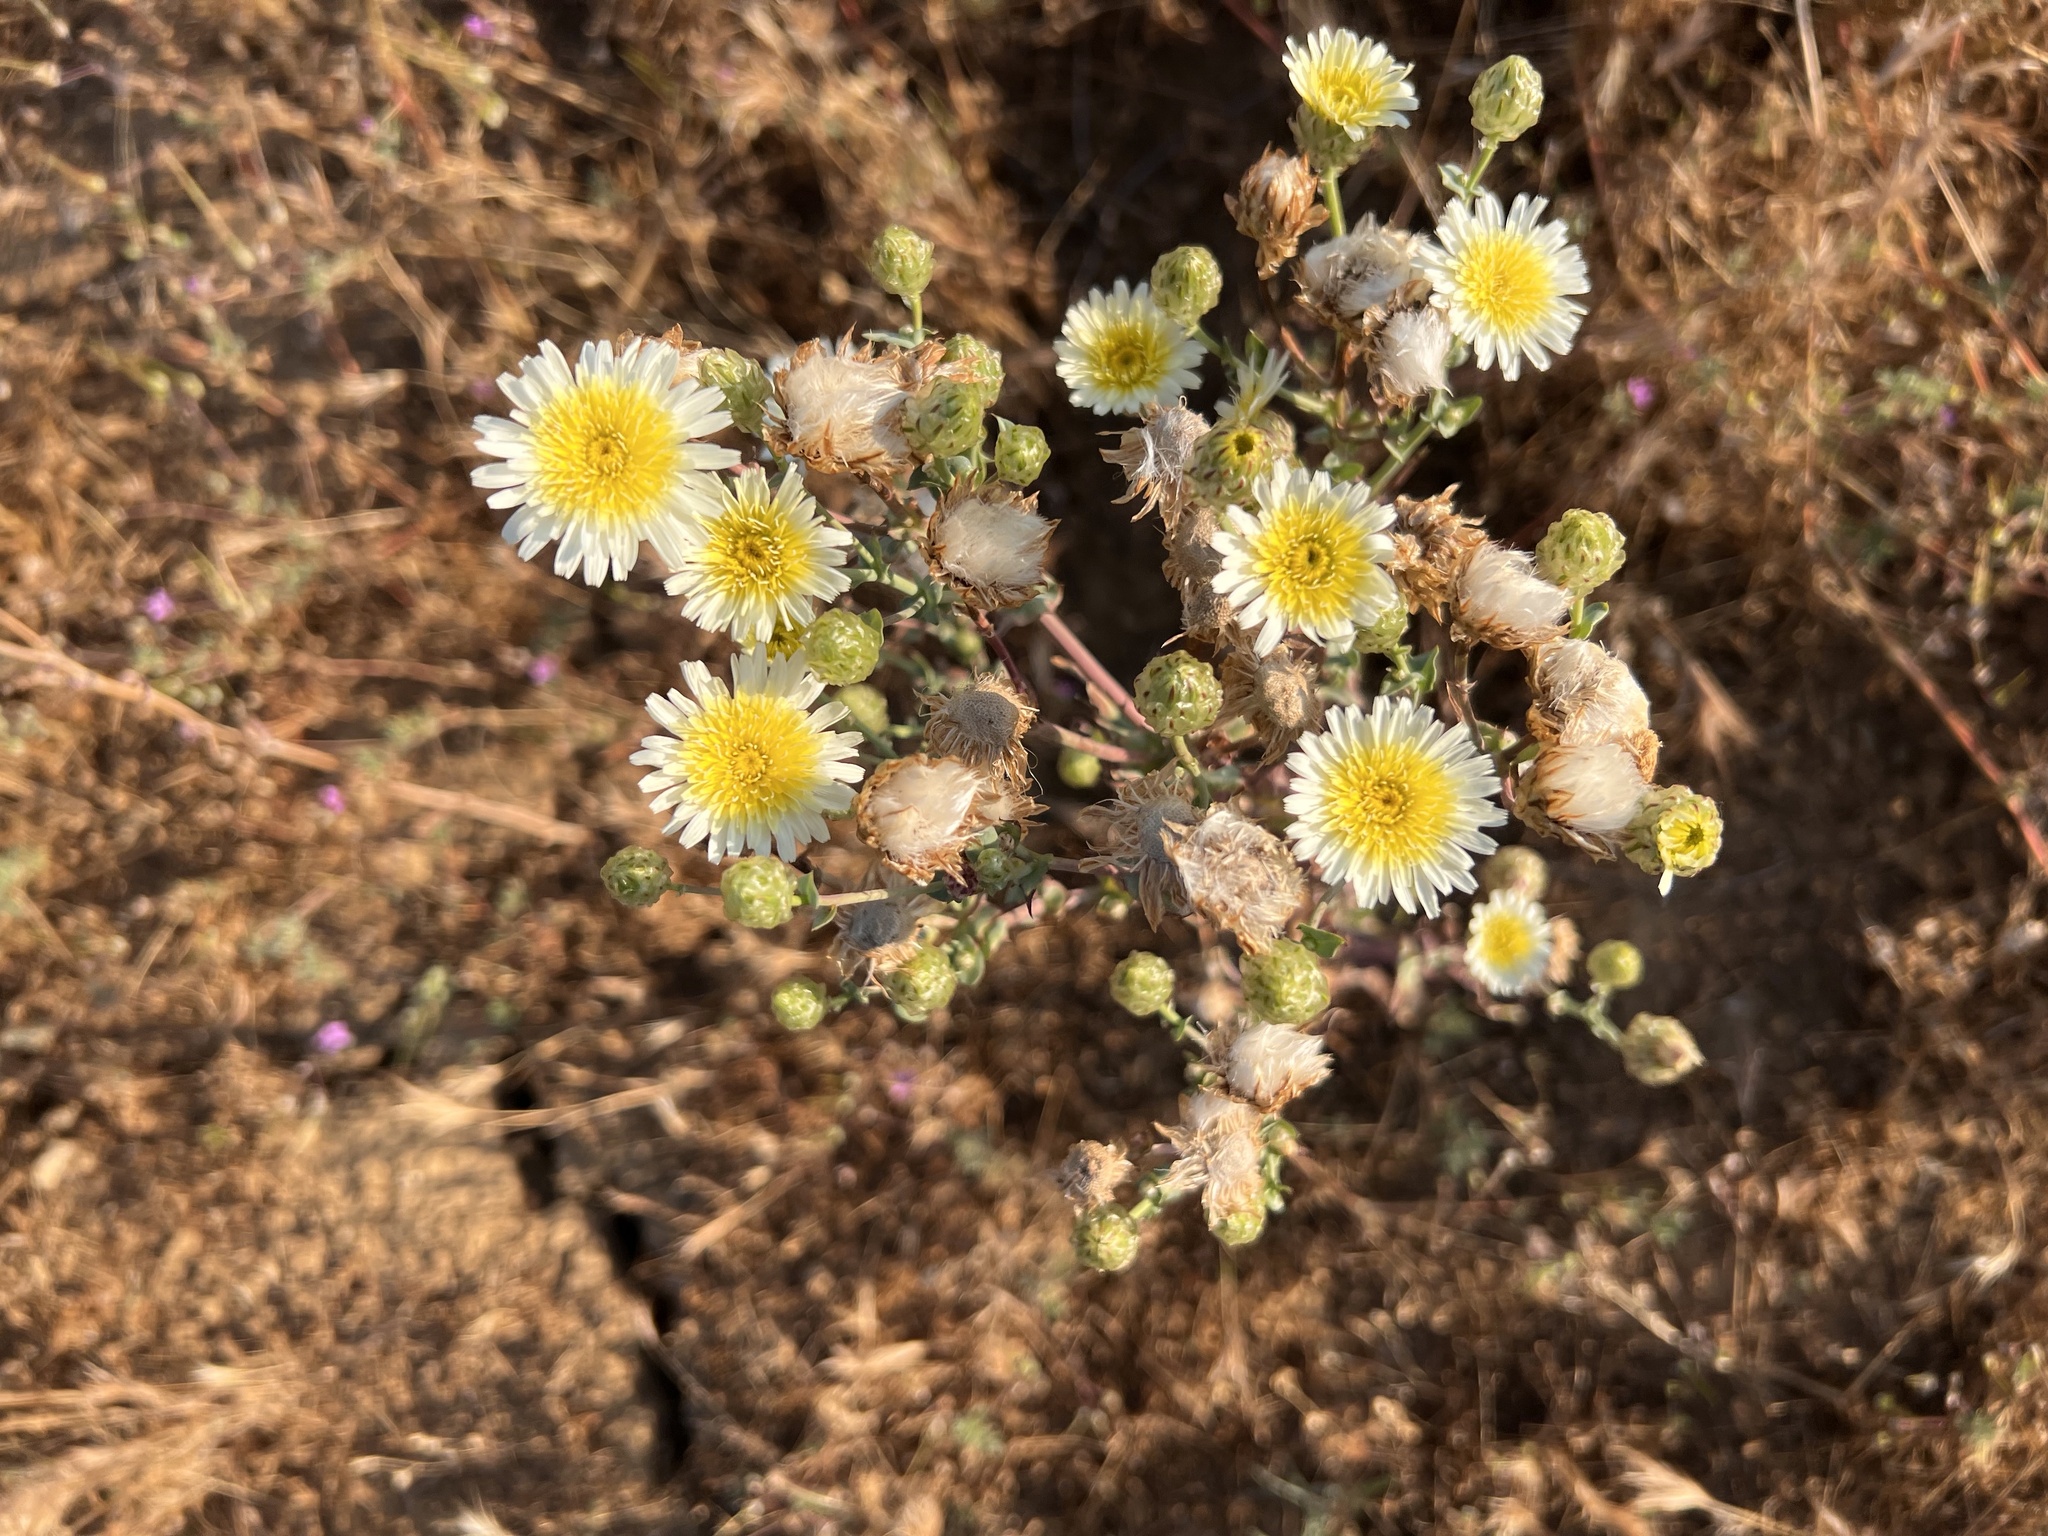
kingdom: Plantae
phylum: Tracheophyta
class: Magnoliopsida
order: Asterales
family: Asteraceae
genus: Malacothrix
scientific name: Malacothrix coulteri
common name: Snake's-head
